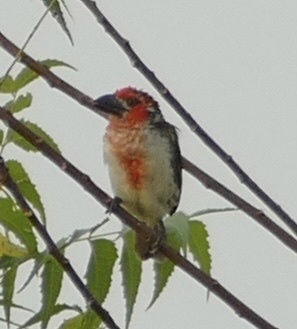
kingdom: Animalia
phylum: Chordata
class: Aves
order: Piciformes
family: Lybiidae
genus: Lybius
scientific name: Lybius vieilloti
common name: Vieillot's barbet
